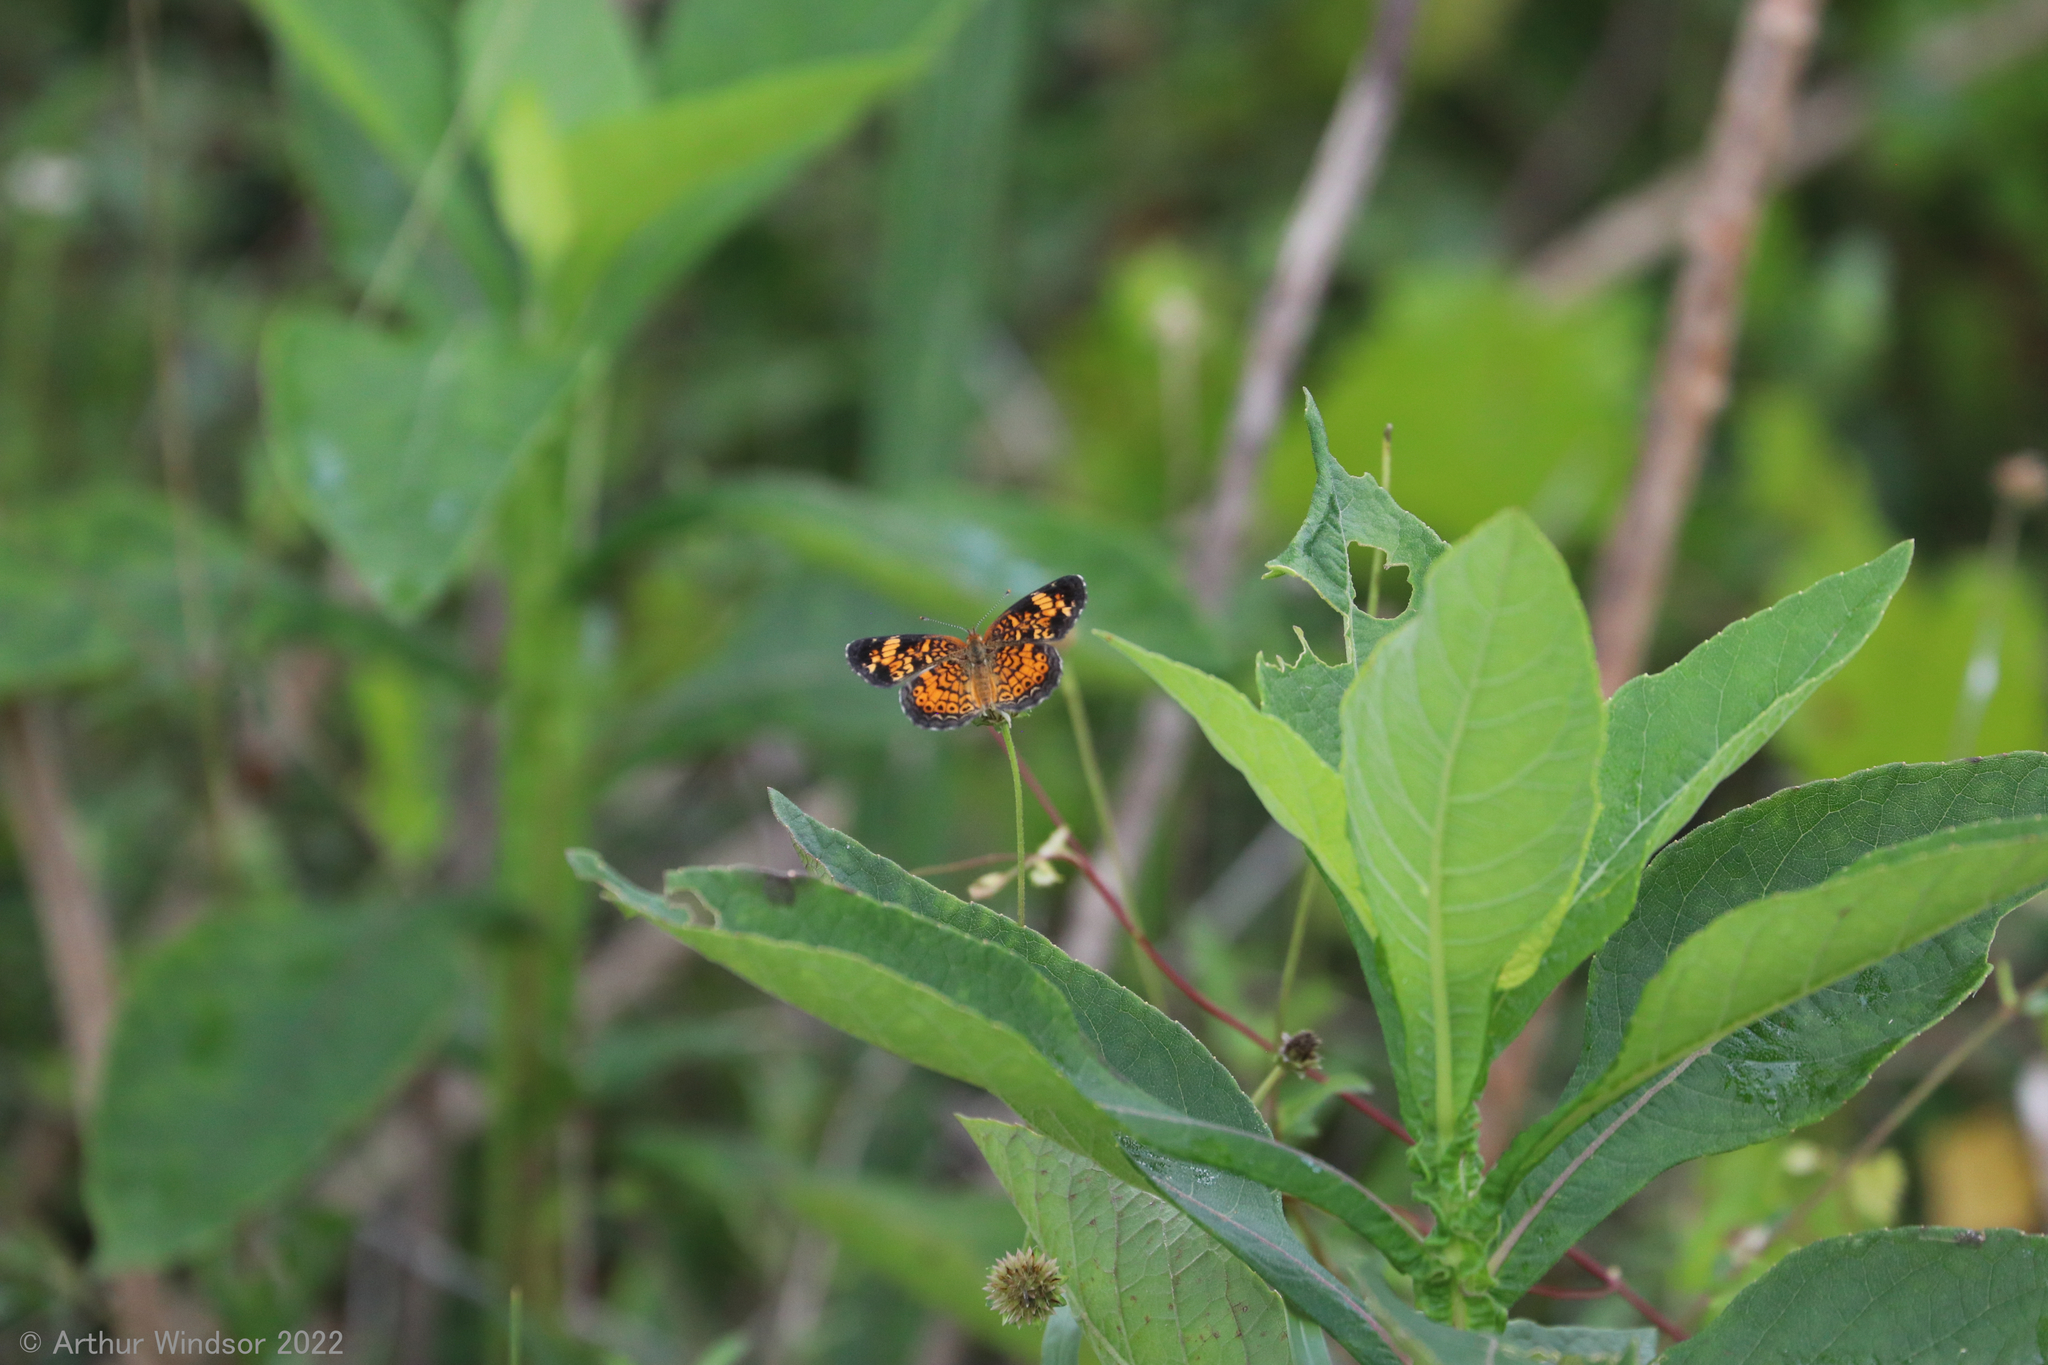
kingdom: Animalia
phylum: Arthropoda
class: Insecta
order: Lepidoptera
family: Nymphalidae
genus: Phyciodes
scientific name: Phyciodes tharos
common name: Pearl crescent
